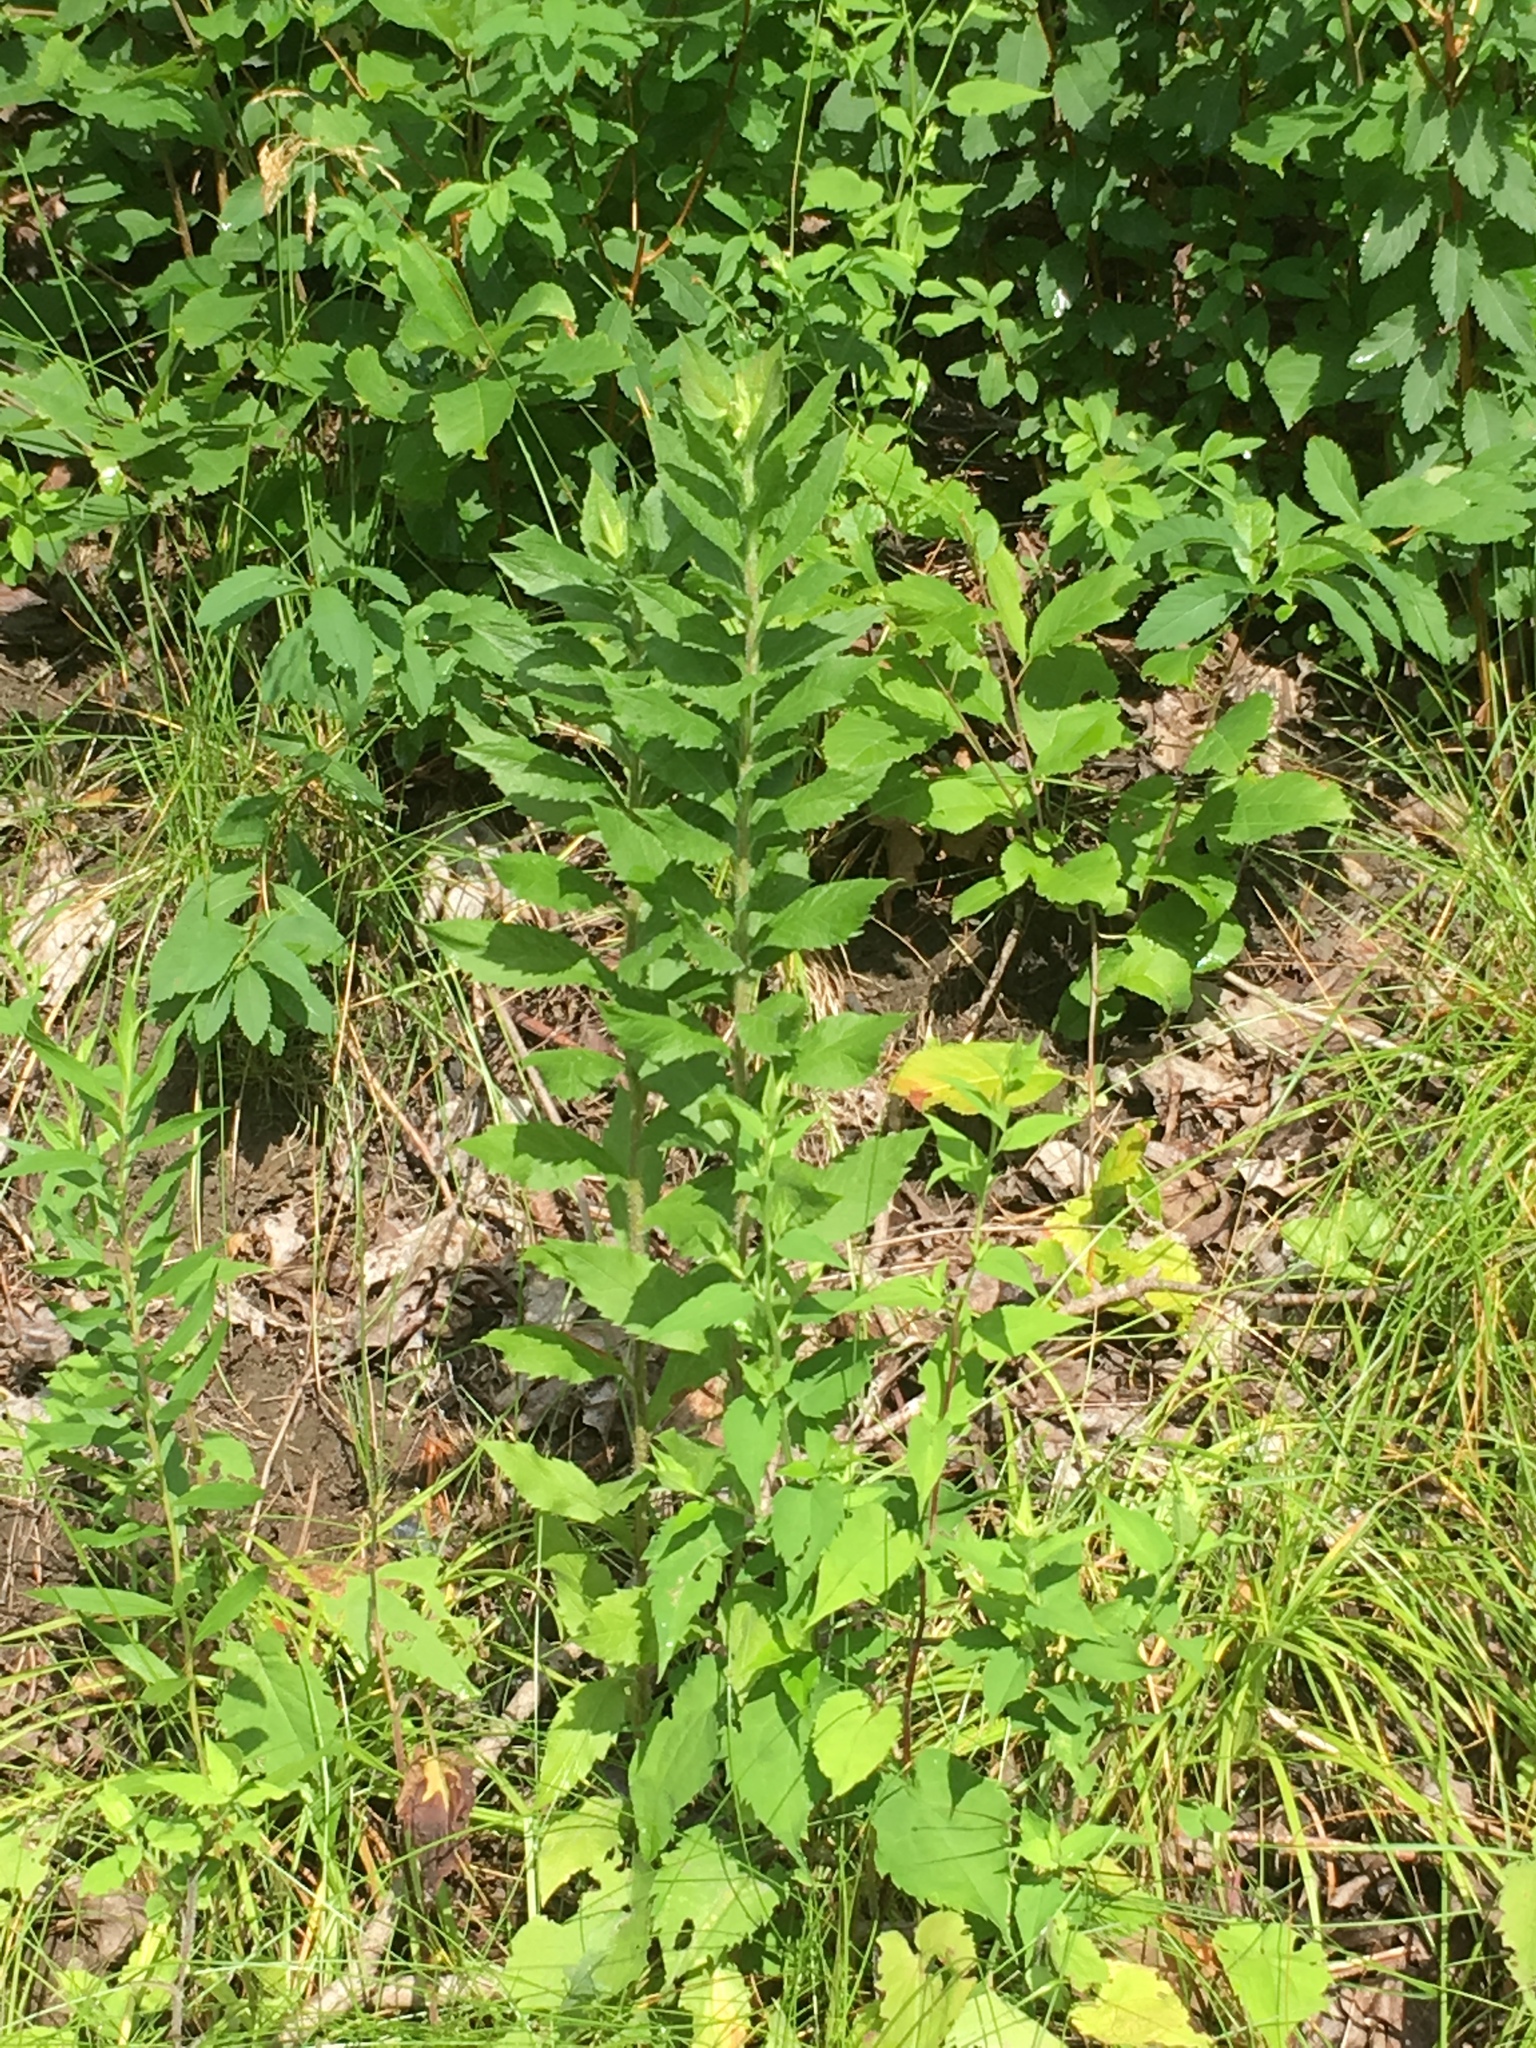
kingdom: Plantae
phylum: Tracheophyta
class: Magnoliopsida
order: Asterales
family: Asteraceae
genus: Solidago
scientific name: Solidago rugosa
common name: Rough-stemmed goldenrod
